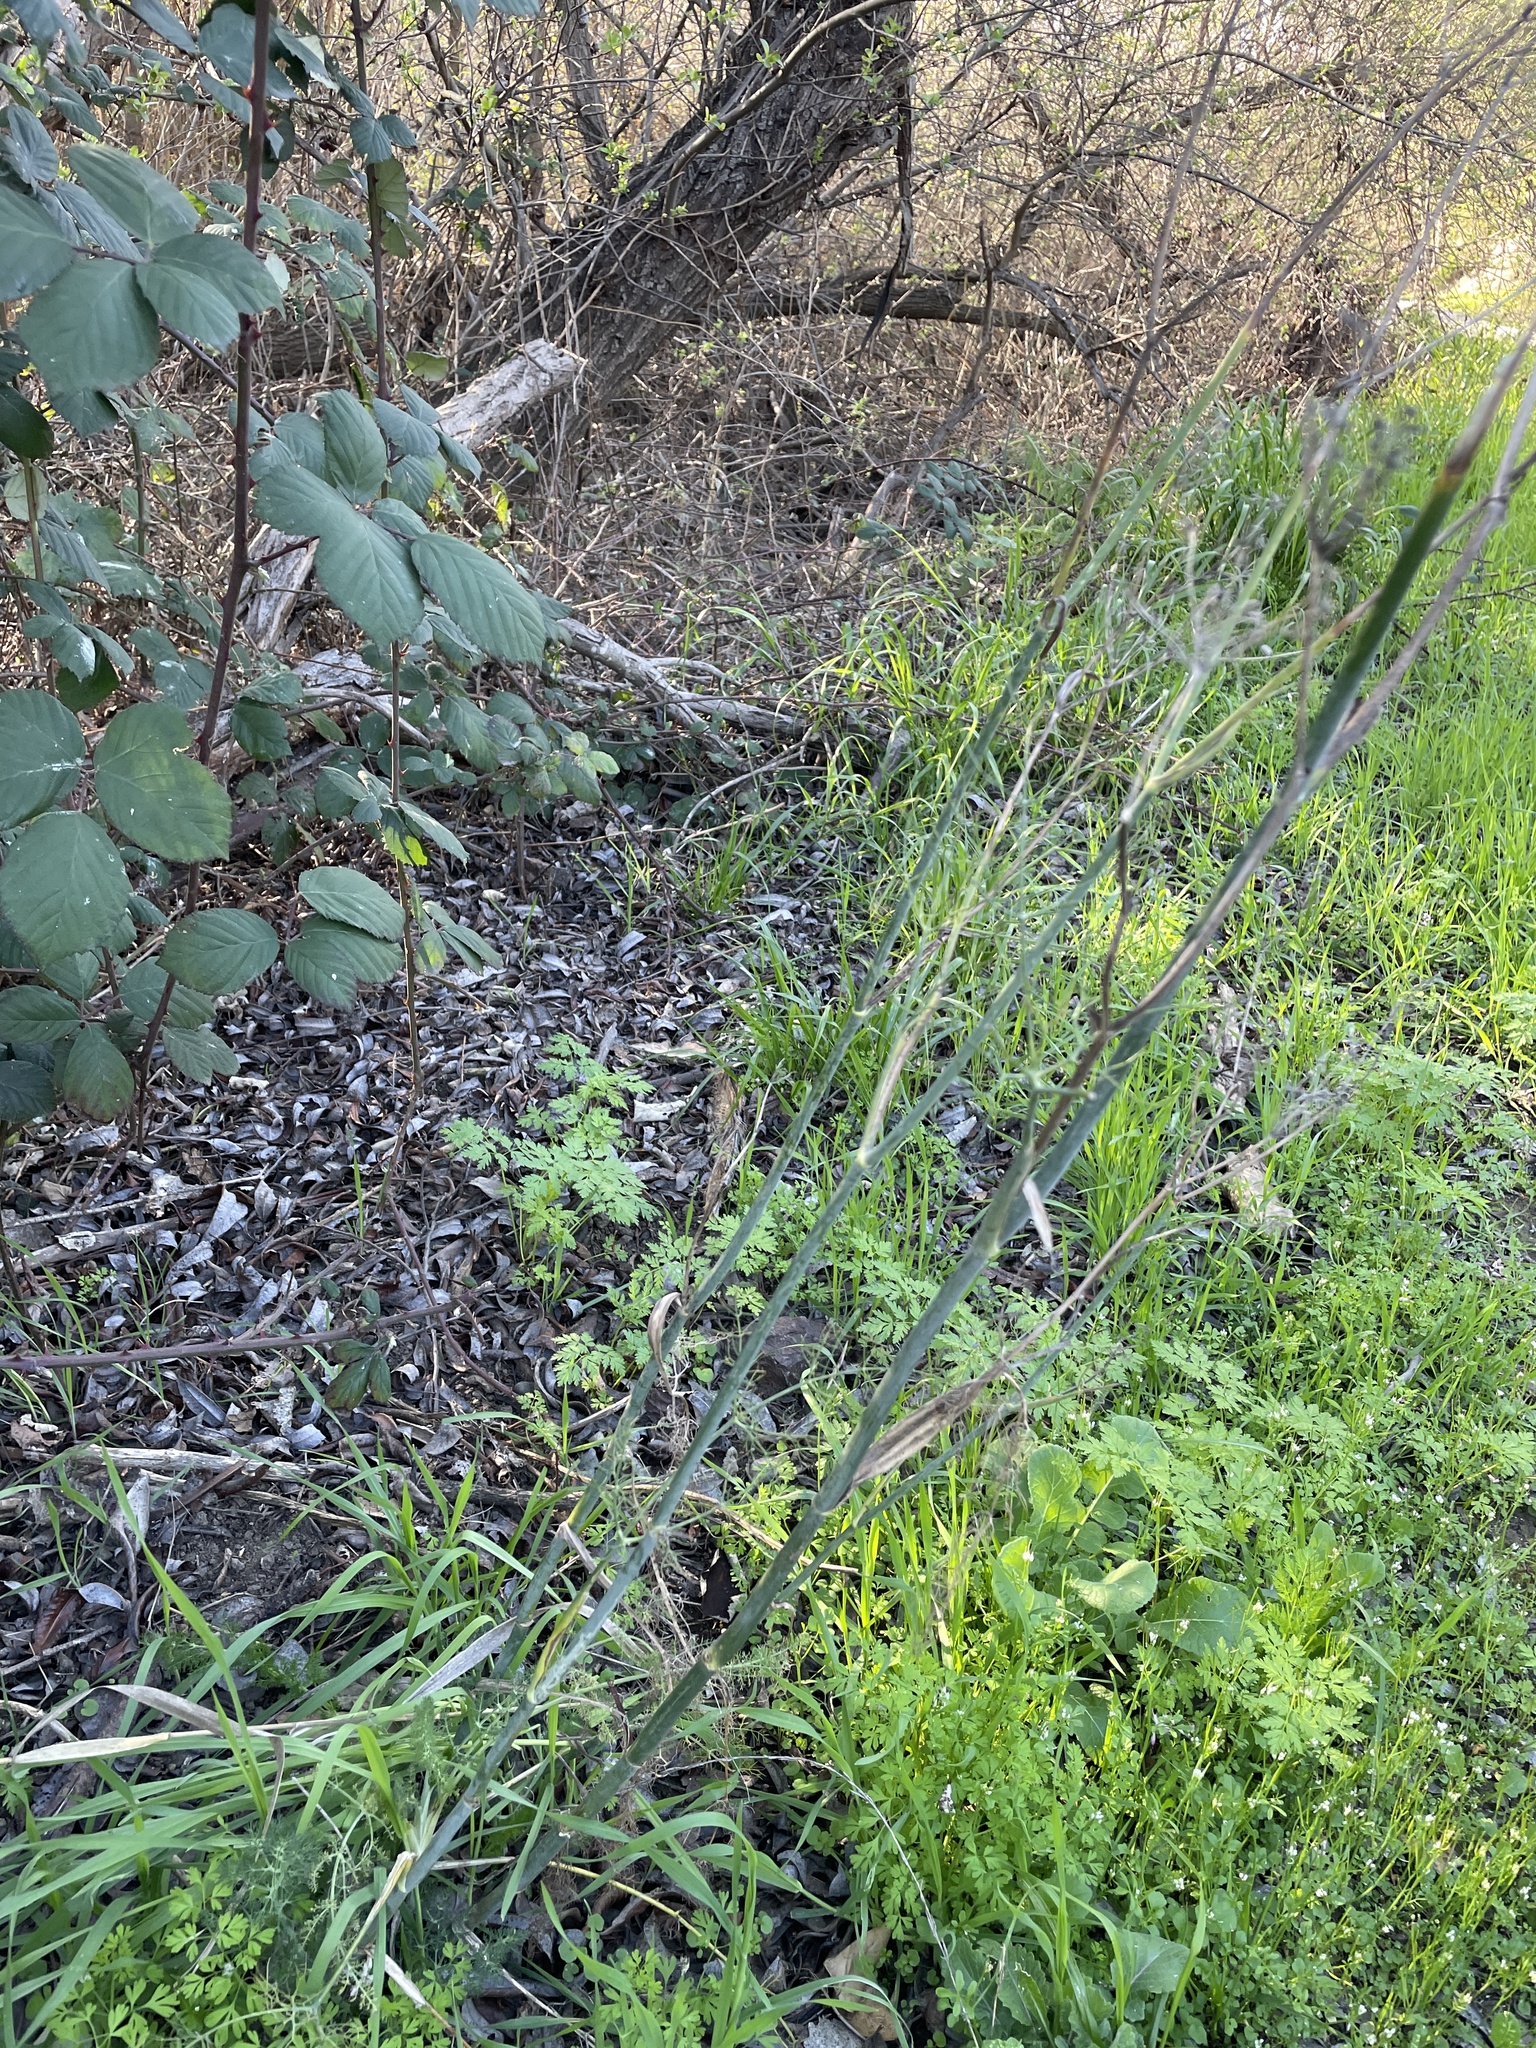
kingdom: Plantae
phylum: Tracheophyta
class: Magnoliopsida
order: Apiales
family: Apiaceae
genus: Foeniculum
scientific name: Foeniculum vulgare
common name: Fennel
